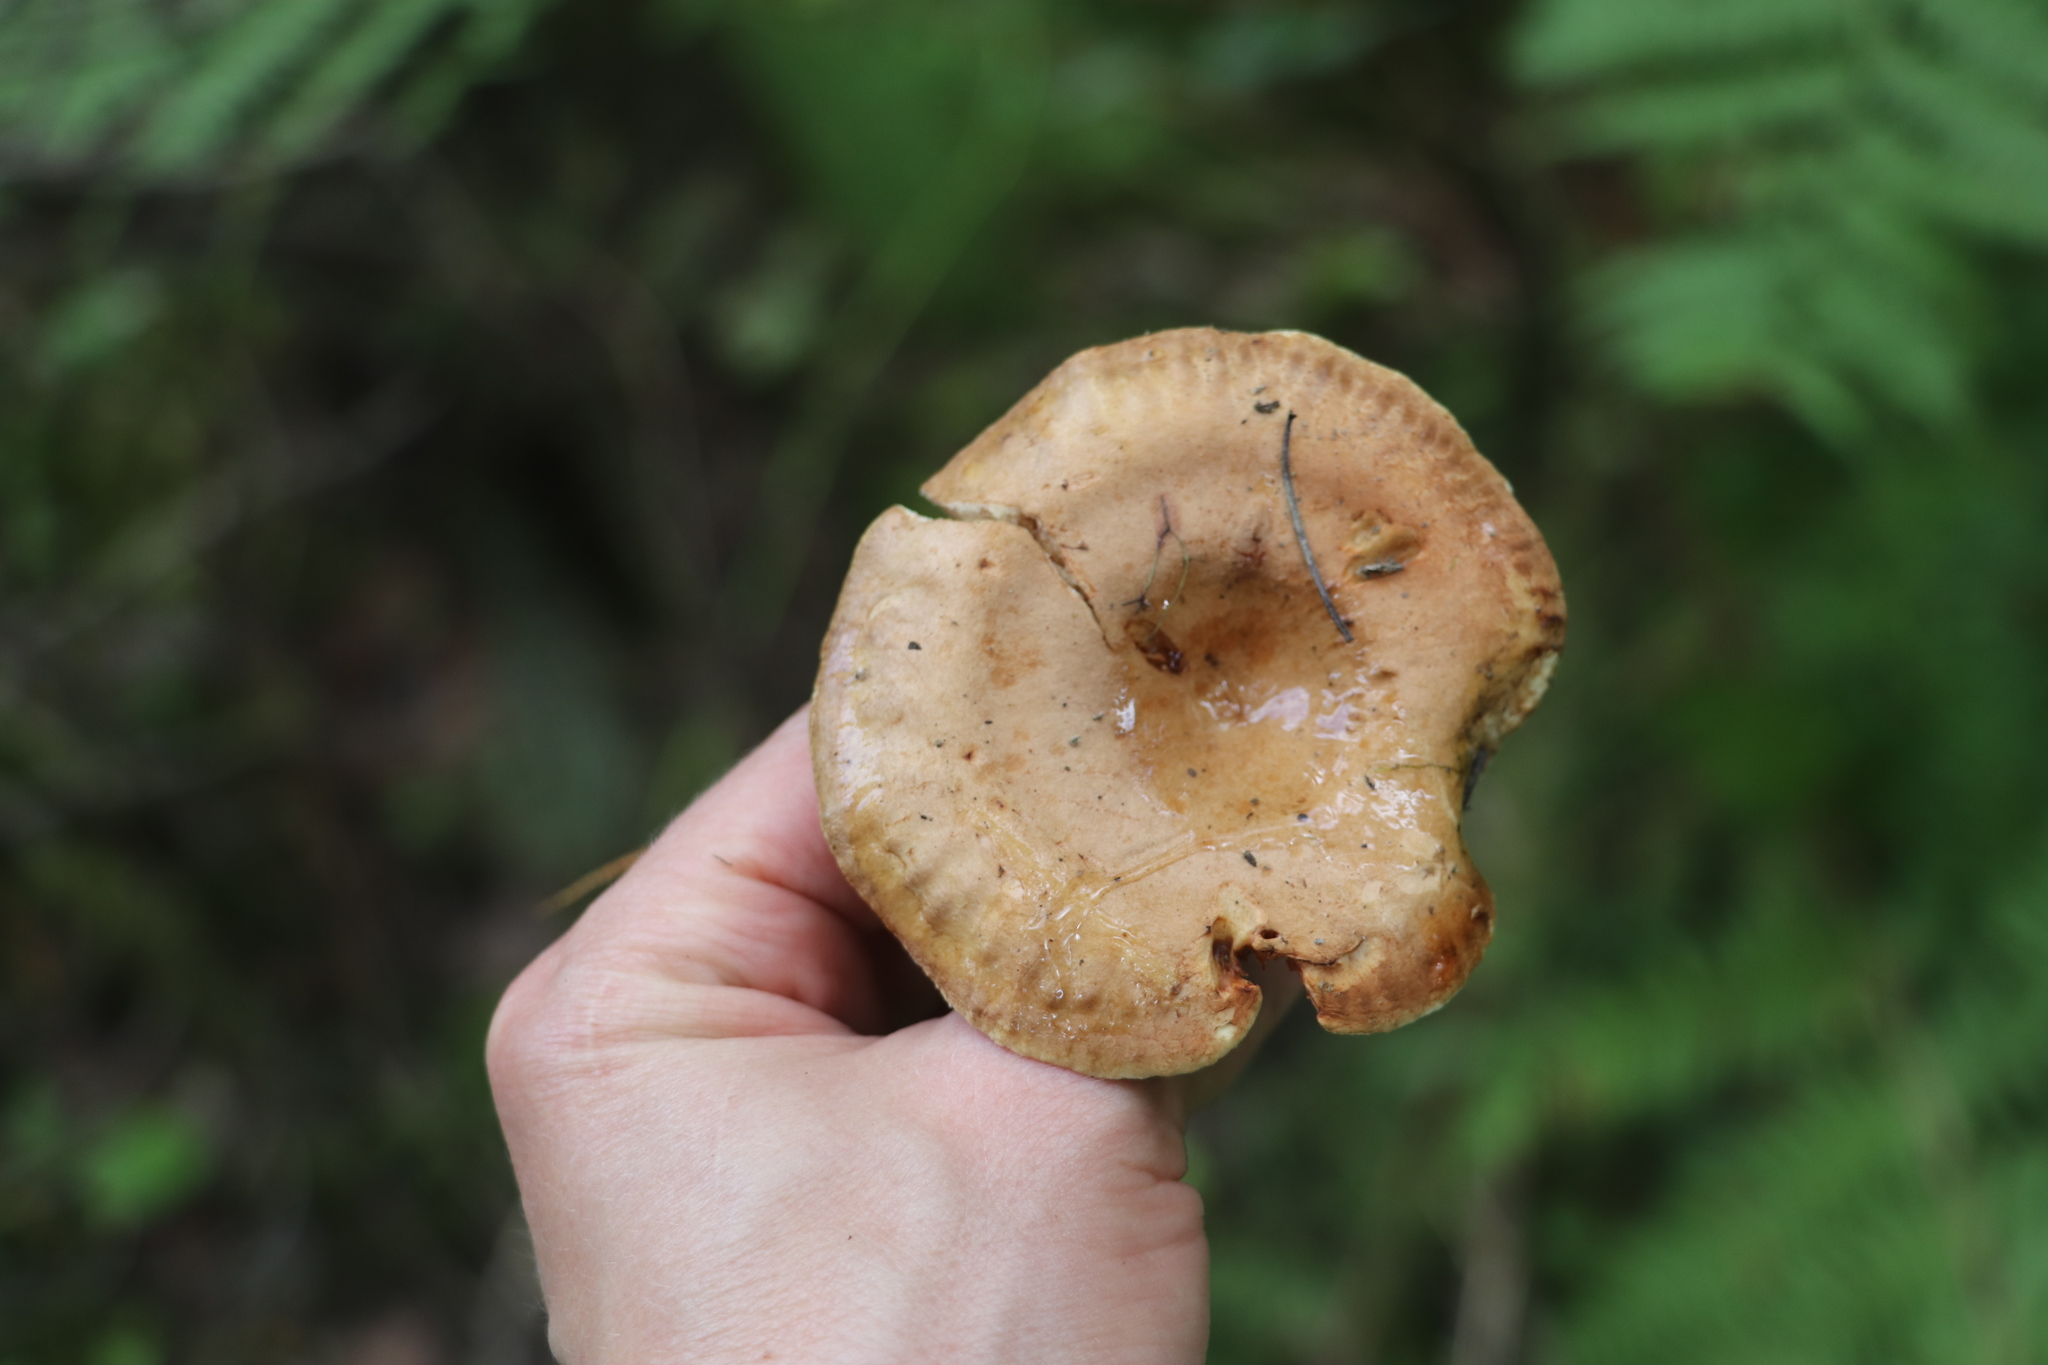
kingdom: Fungi
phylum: Basidiomycota
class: Agaricomycetes
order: Boletales
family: Paxillaceae
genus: Paxillus
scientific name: Paxillus involutus
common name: Brown roll rim
